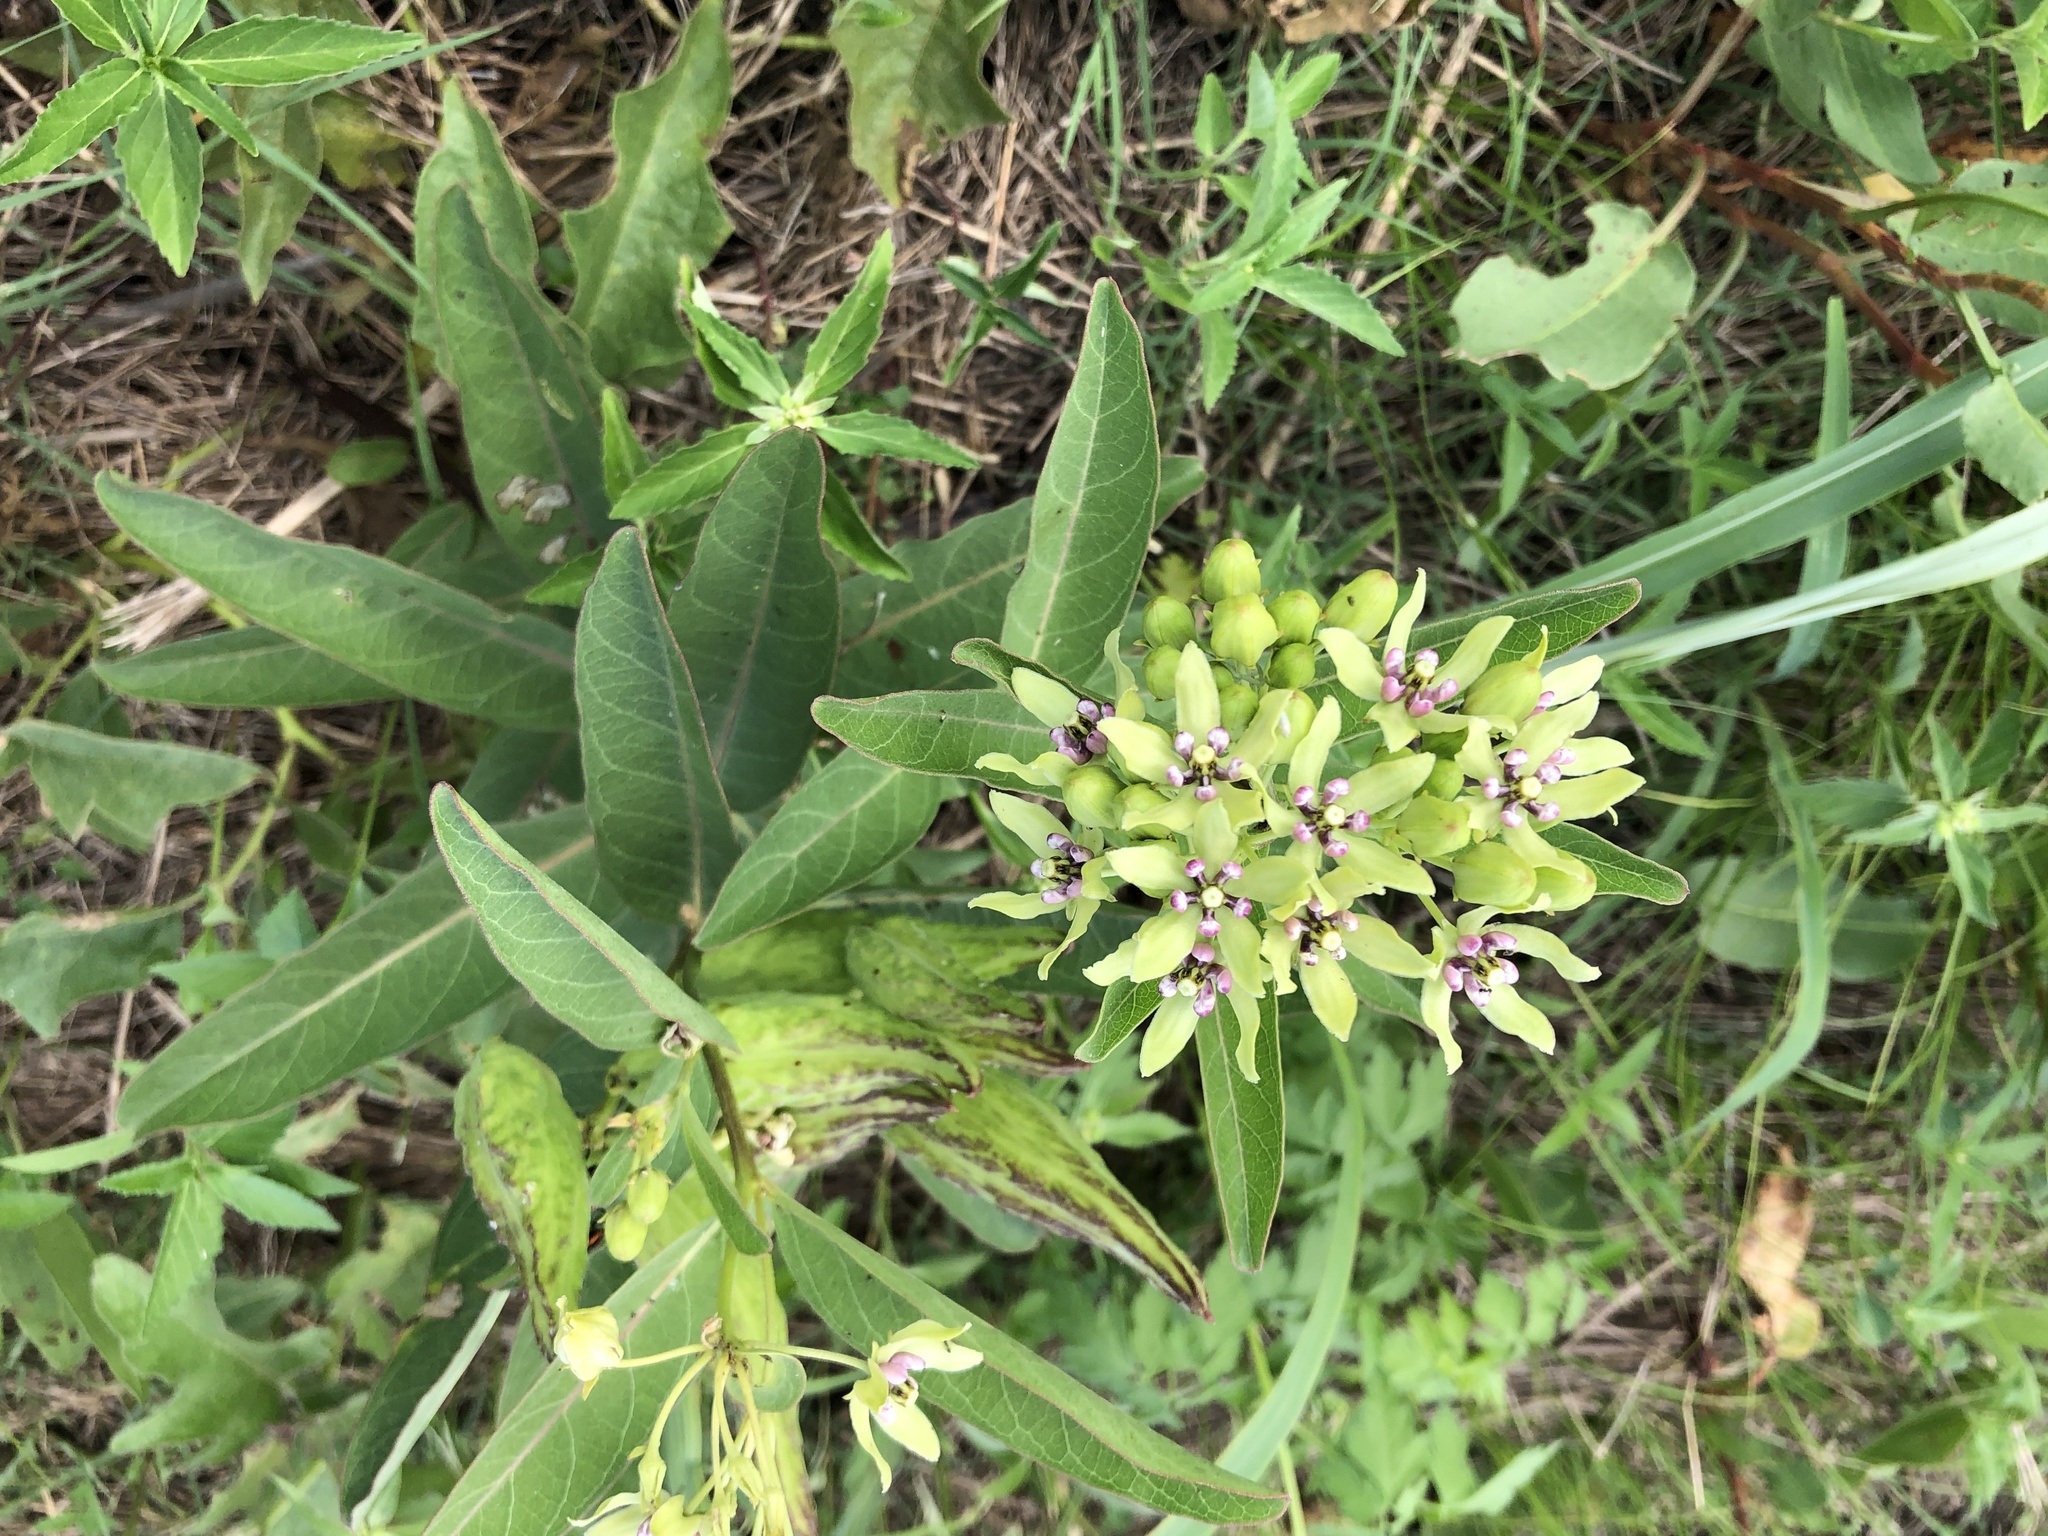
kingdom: Plantae
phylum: Tracheophyta
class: Magnoliopsida
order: Gentianales
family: Apocynaceae
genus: Asclepias
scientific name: Asclepias viridis
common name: Antelope-horns
